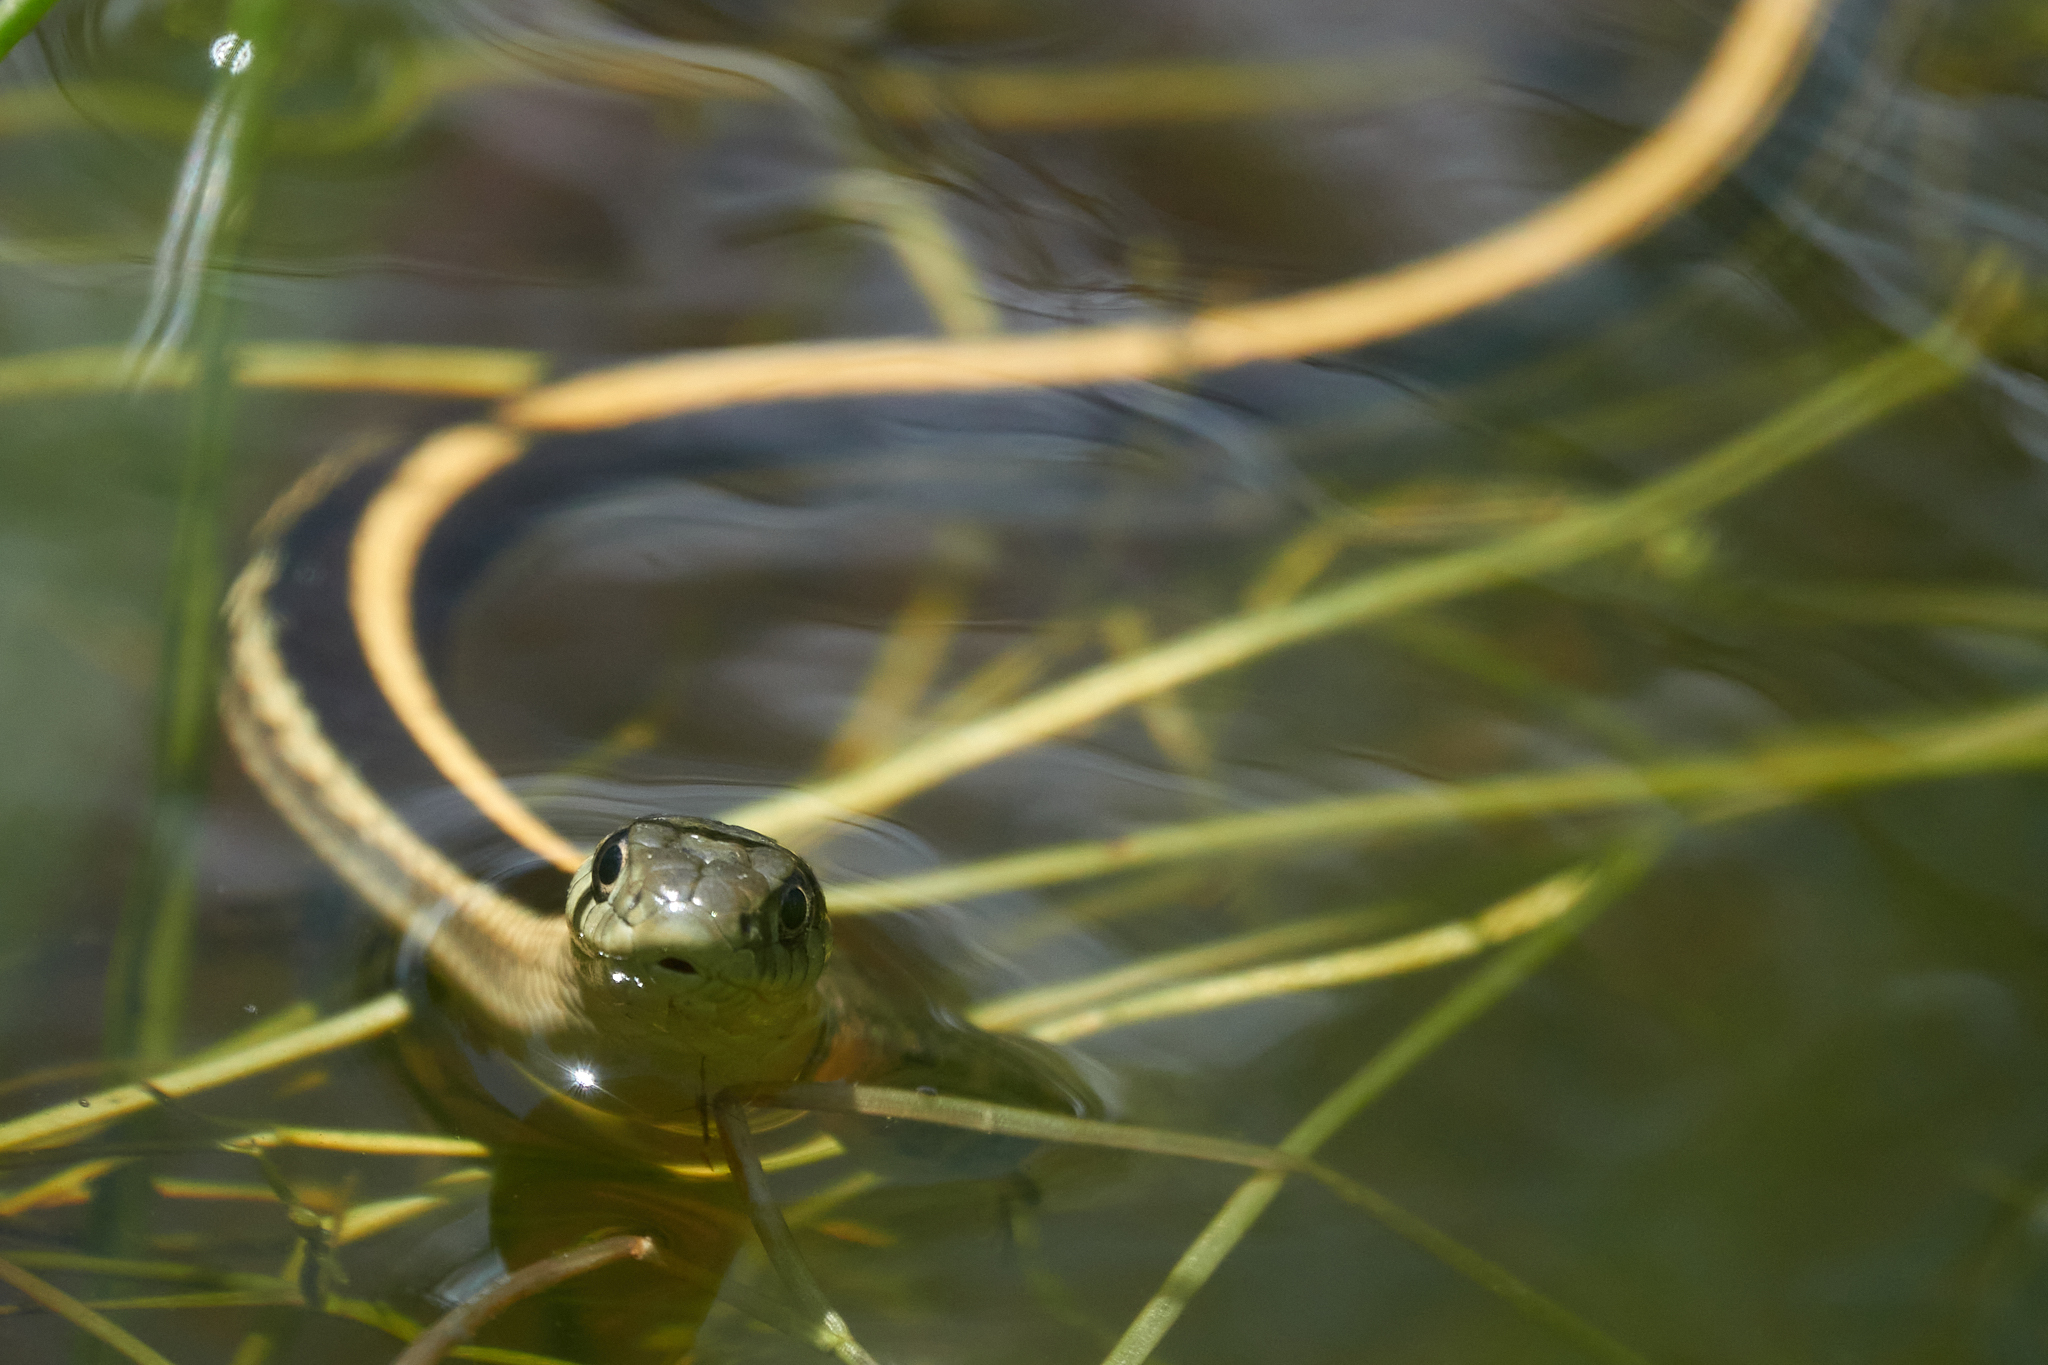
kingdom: Animalia
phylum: Chordata
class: Squamata
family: Colubridae
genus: Thamnophis
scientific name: Thamnophis atratus
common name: Pacific coast aquatic garter snake
